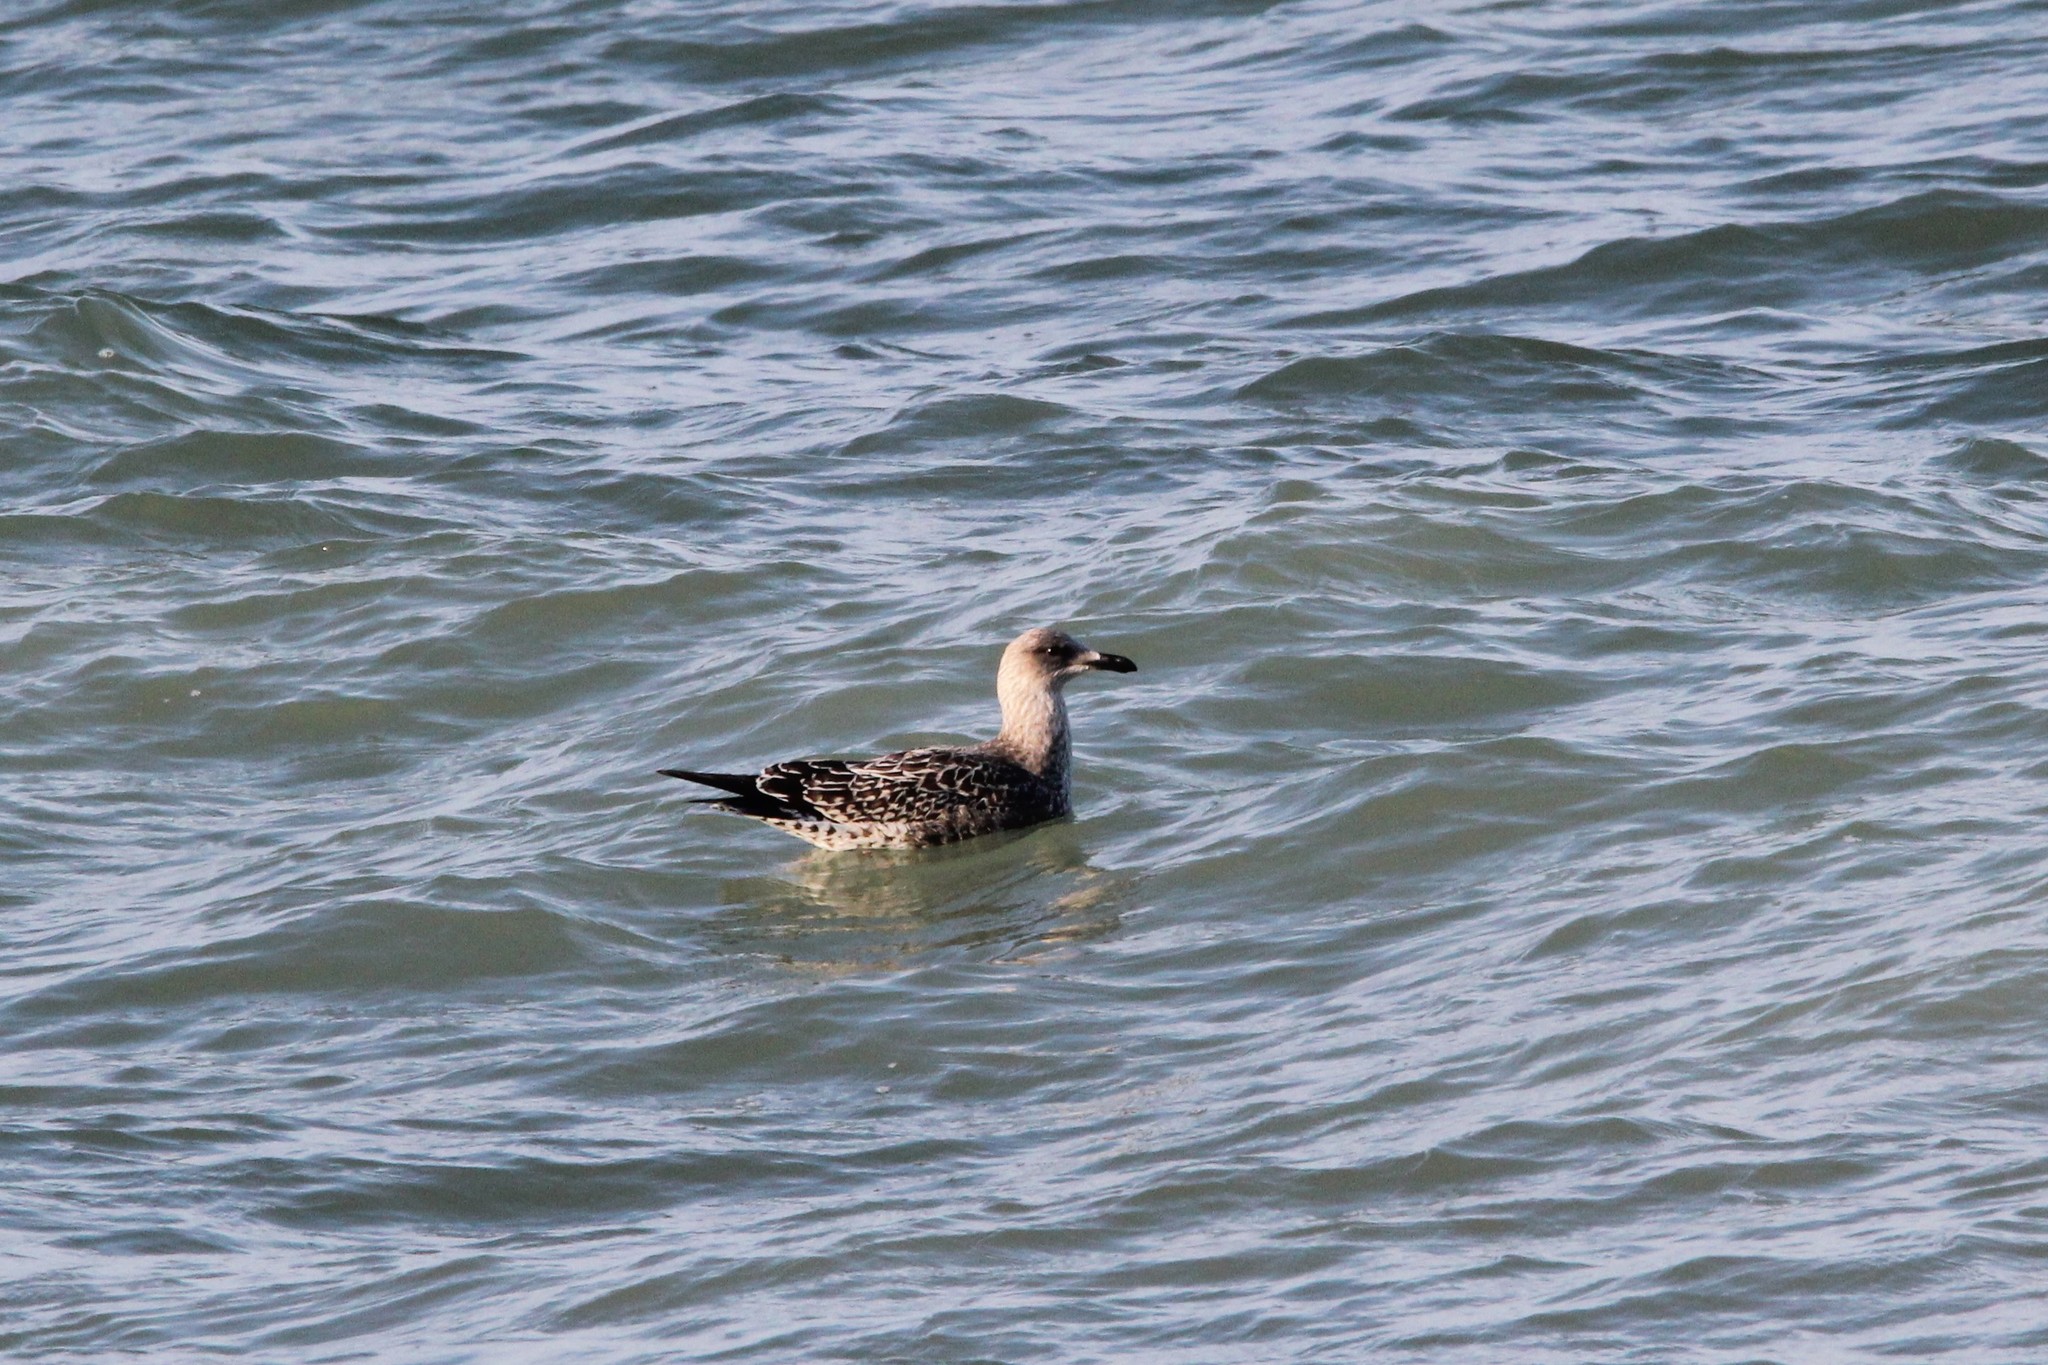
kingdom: Animalia
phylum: Chordata
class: Aves
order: Charadriiformes
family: Laridae
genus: Larus
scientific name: Larus fuscus
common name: Lesser black-backed gull
